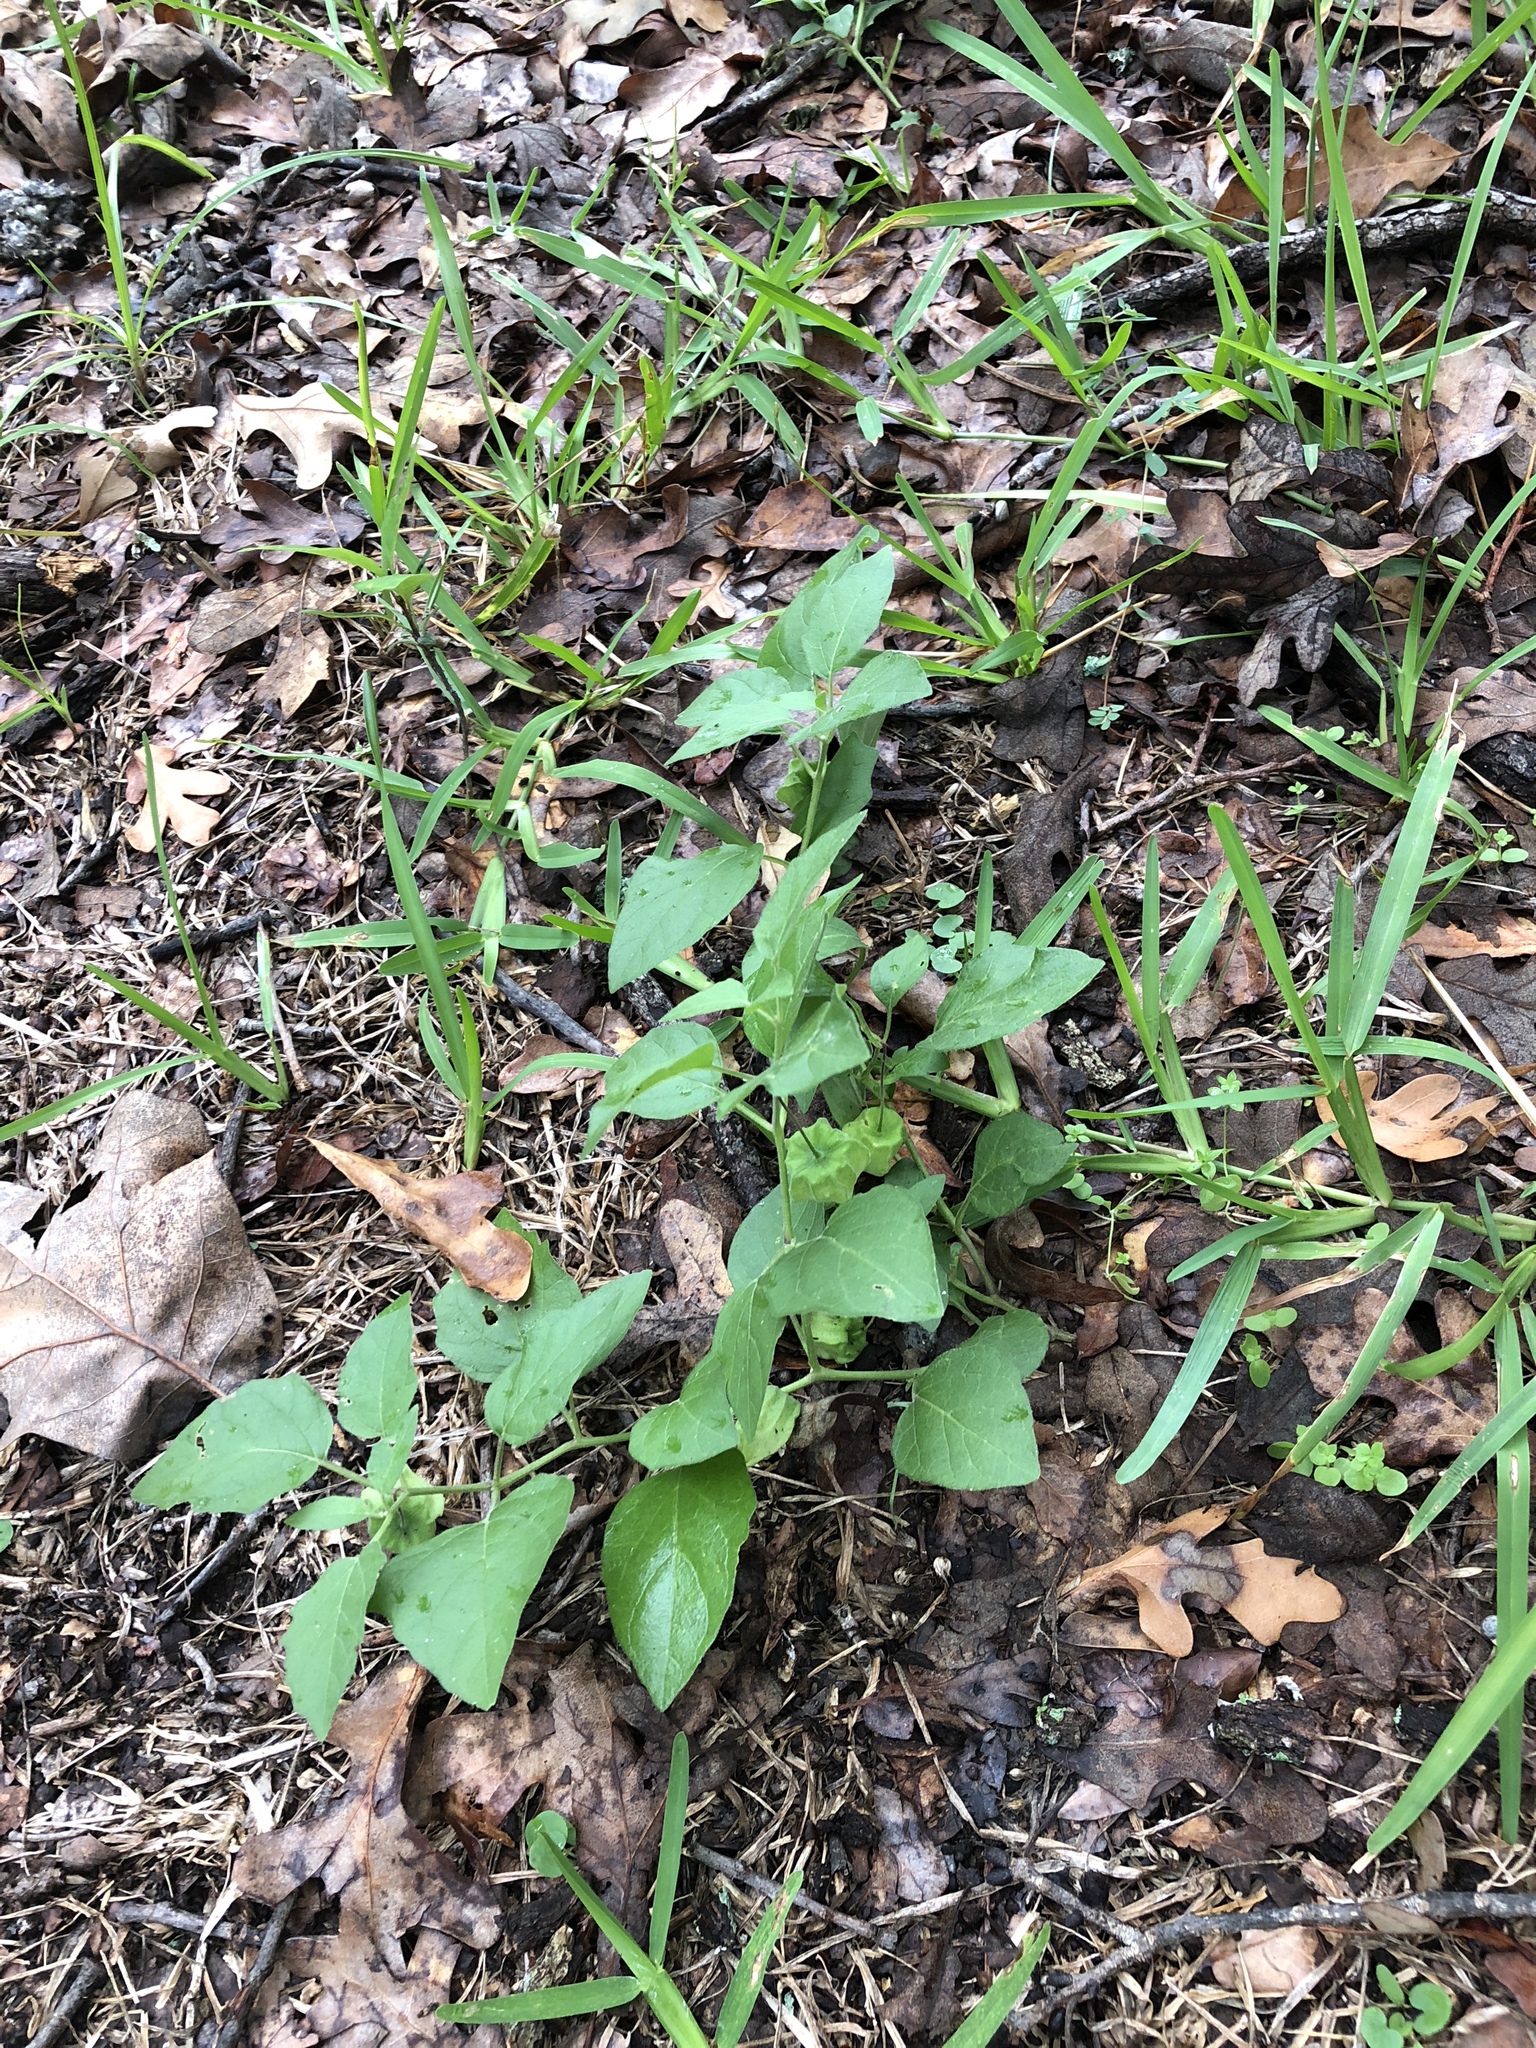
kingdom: Plantae
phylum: Tracheophyta
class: Magnoliopsida
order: Solanales
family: Solanaceae
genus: Physalis
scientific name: Physalis cinerascens
